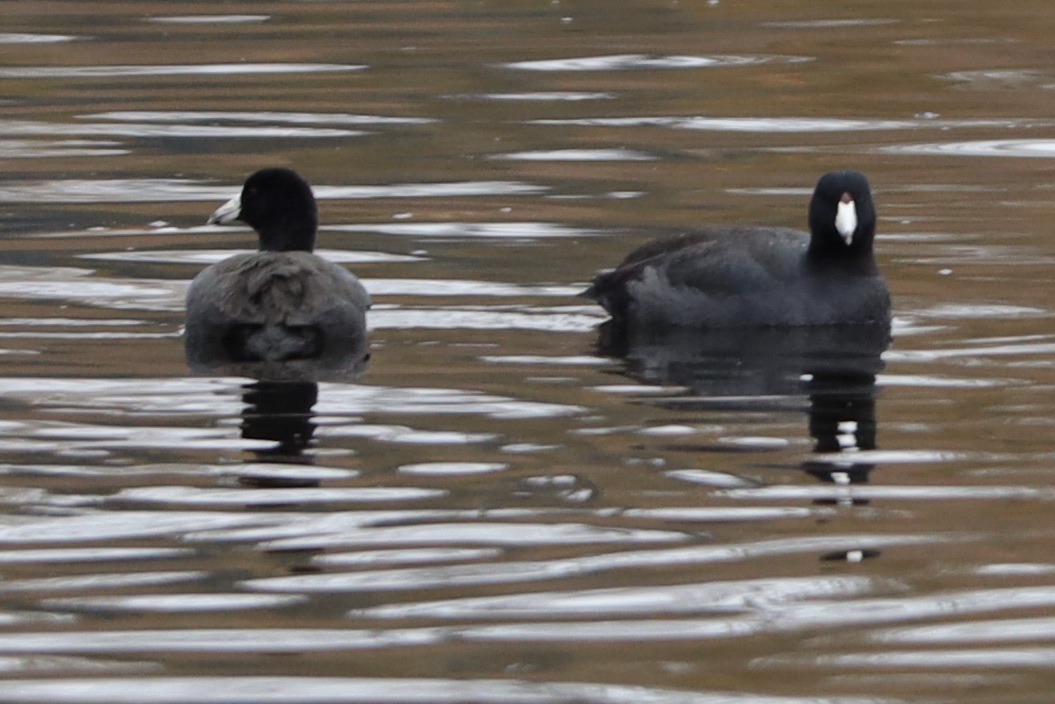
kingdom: Animalia
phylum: Chordata
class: Aves
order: Gruiformes
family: Rallidae
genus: Fulica
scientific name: Fulica americana
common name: American coot
